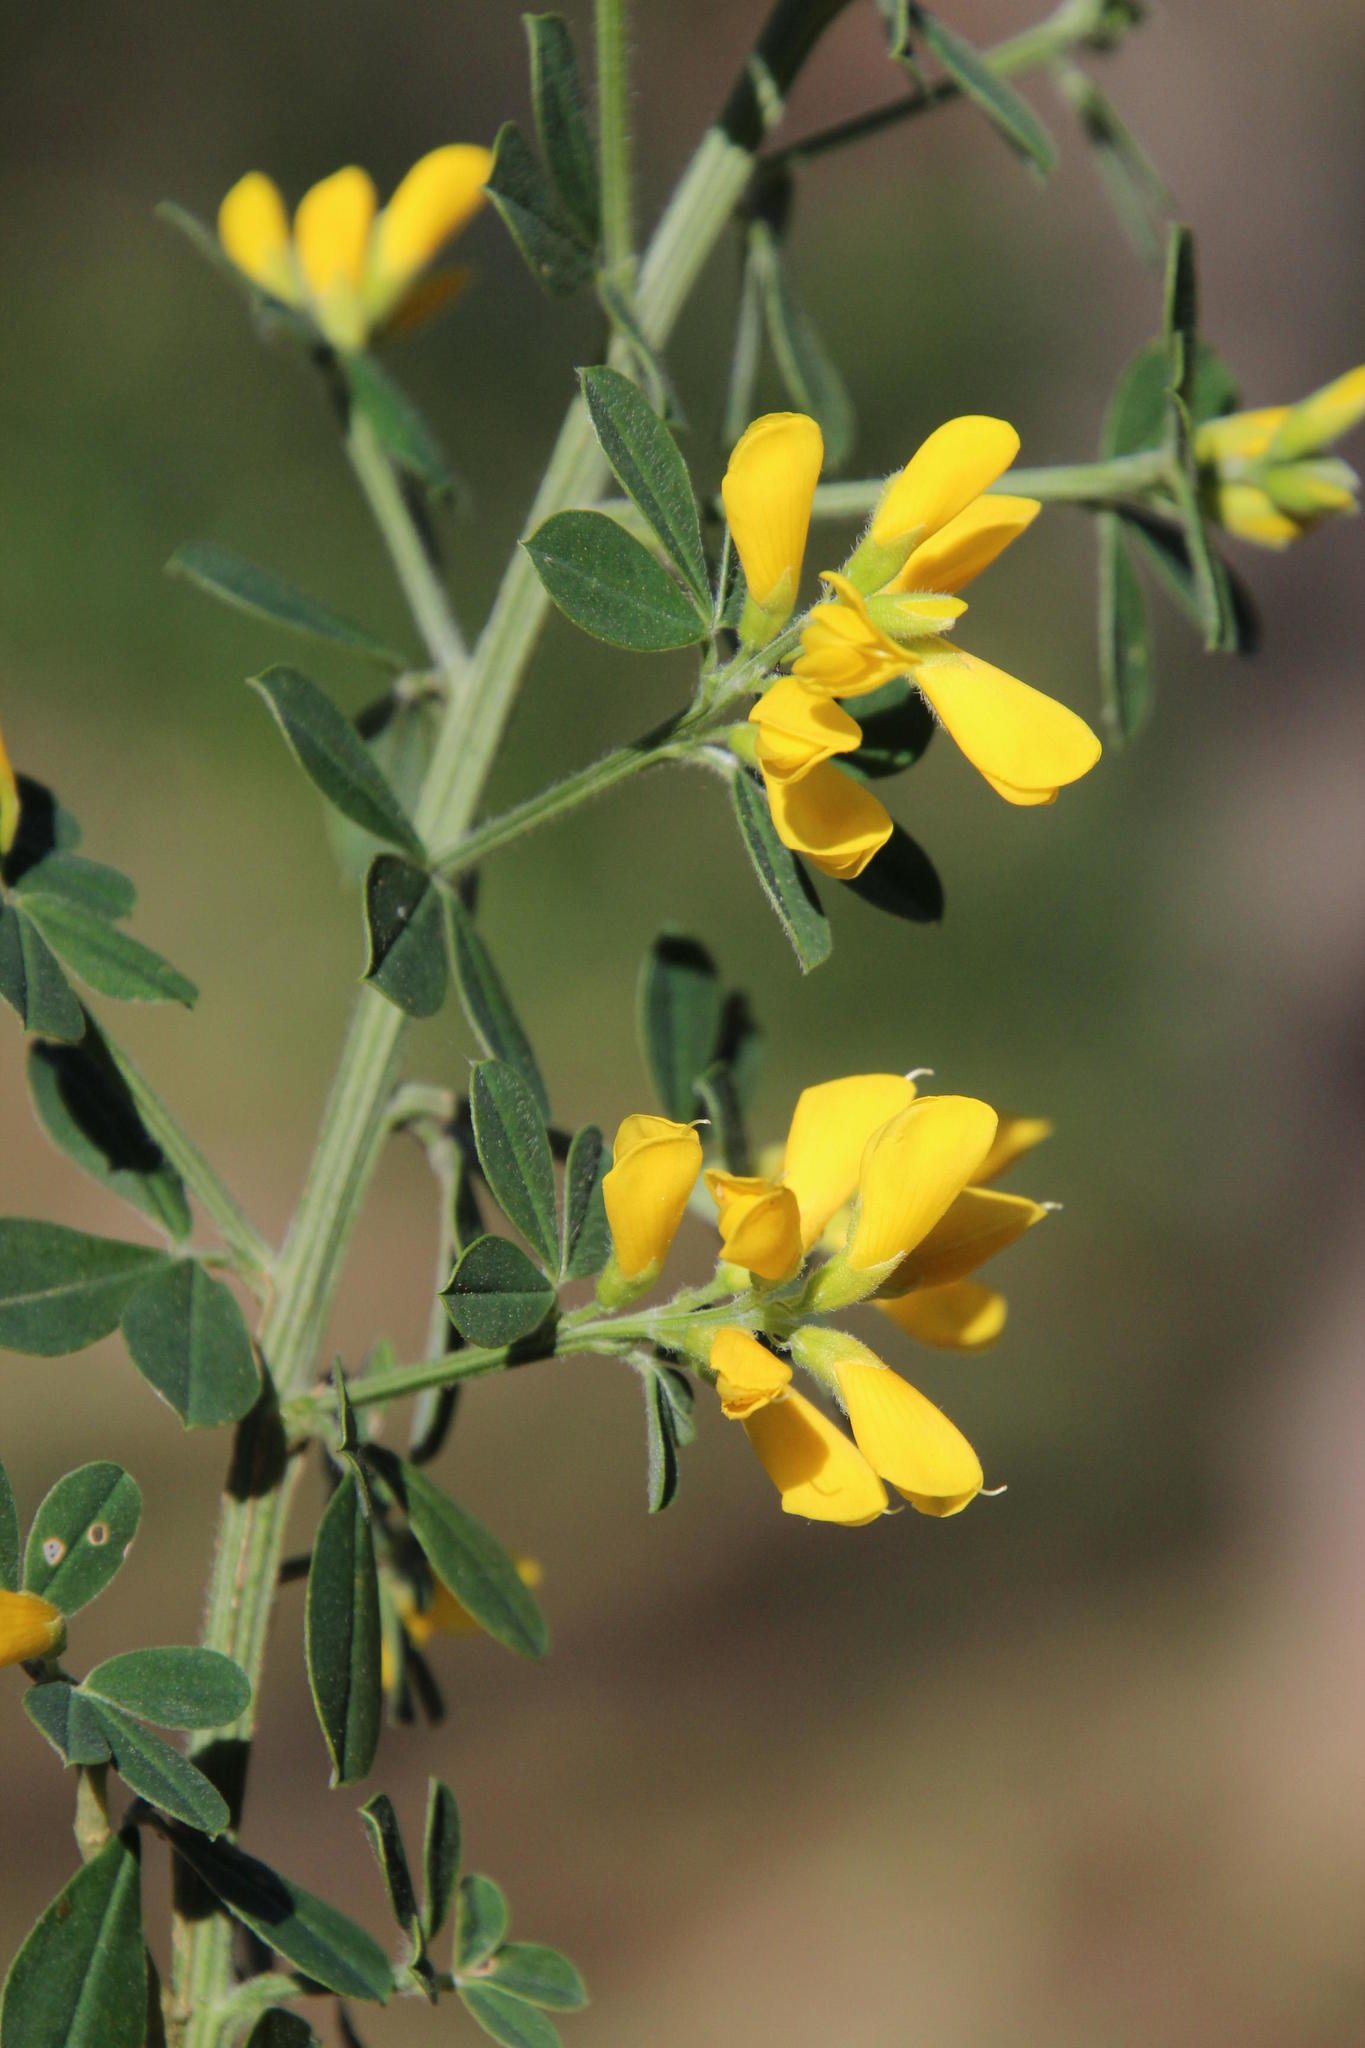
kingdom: Plantae
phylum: Tracheophyta
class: Magnoliopsida
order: Fabales
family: Fabaceae
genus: Genista
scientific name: Genista monspessulana
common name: Montpellier broom
